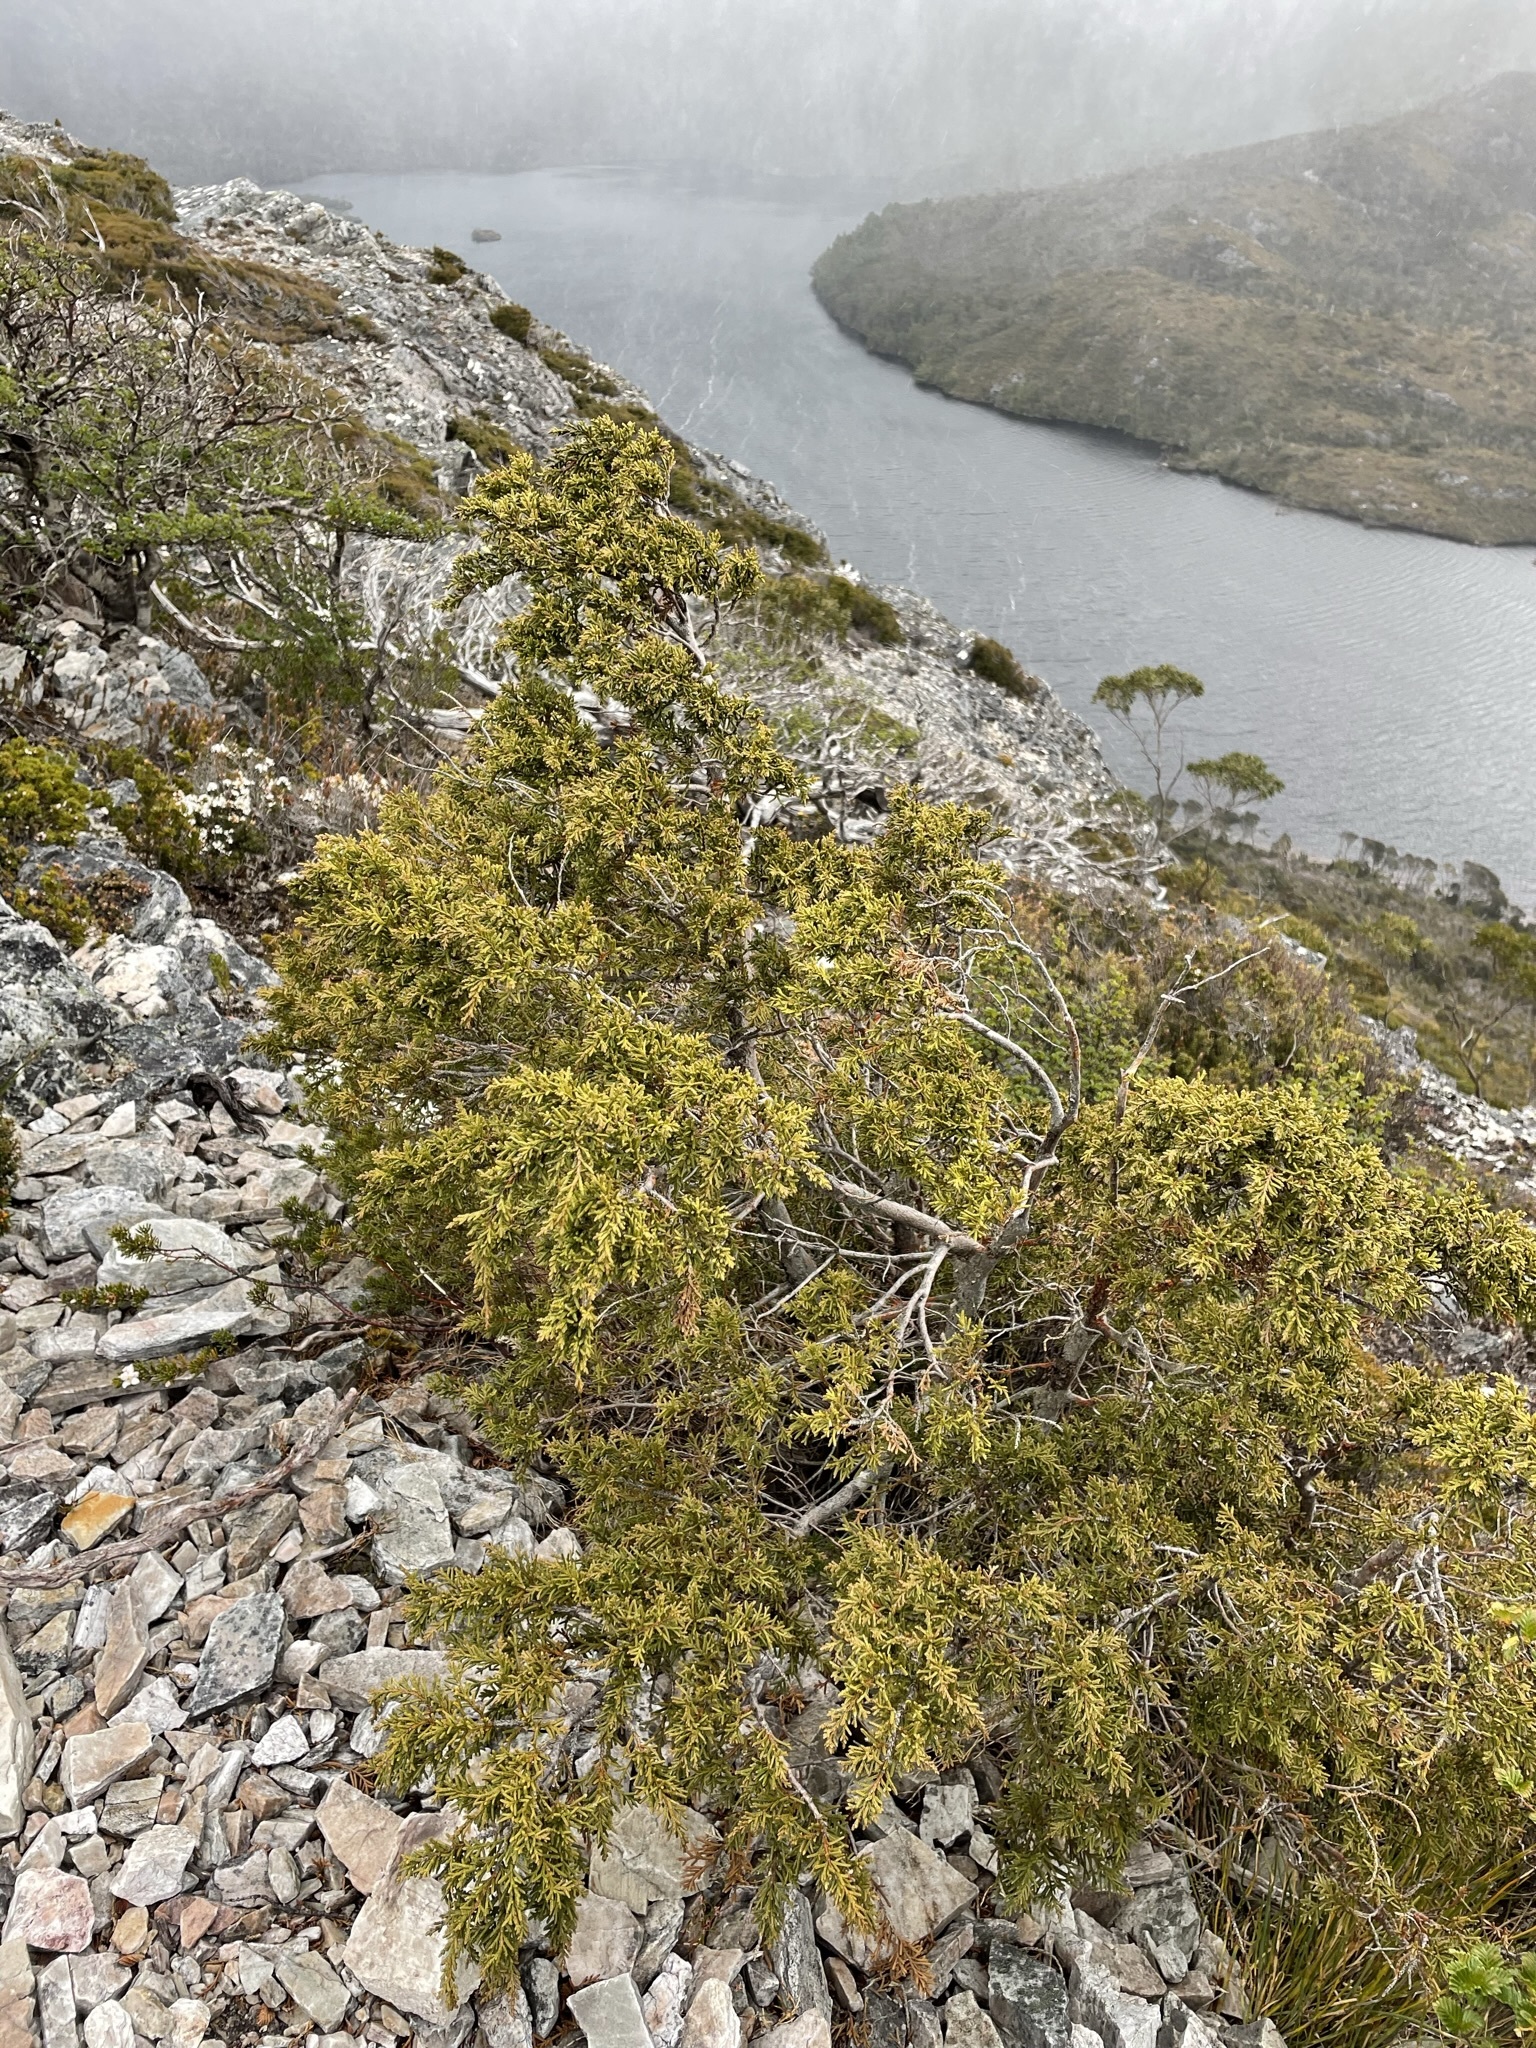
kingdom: Plantae
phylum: Tracheophyta
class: Pinopsida
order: Pinales
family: Cupressaceae
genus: Diselma
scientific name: Diselma archeri
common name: Cheshunt pine
